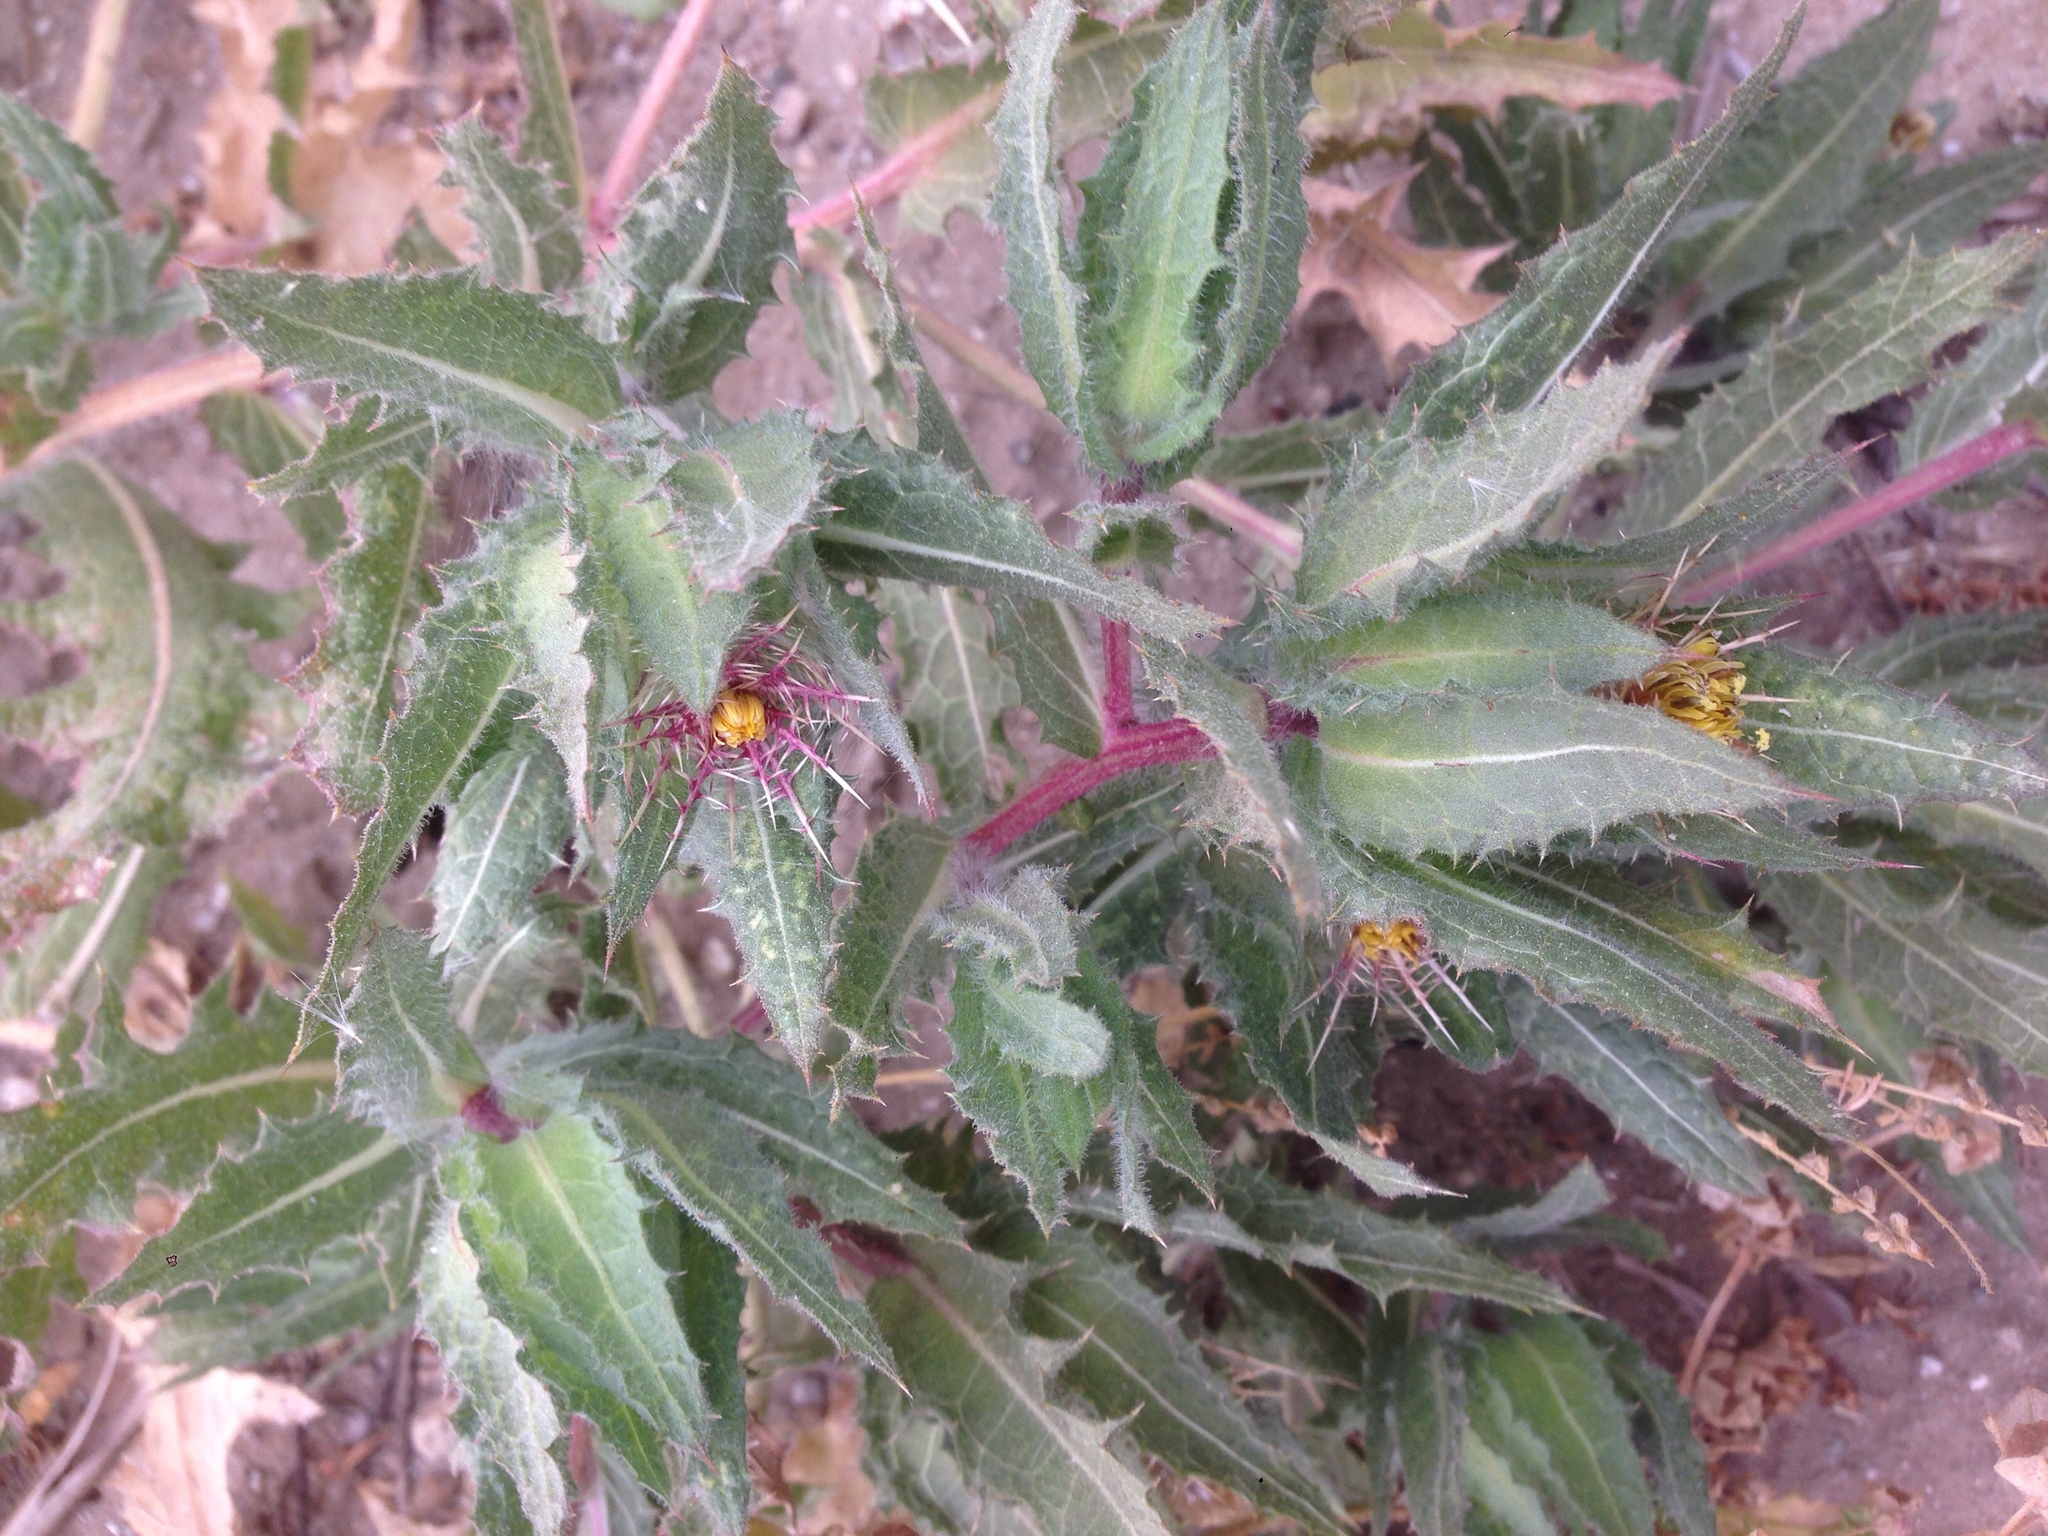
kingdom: Plantae
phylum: Tracheophyta
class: Magnoliopsida
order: Asterales
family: Asteraceae
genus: Centaurea
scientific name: Centaurea benedicta
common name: Blessed thistle
